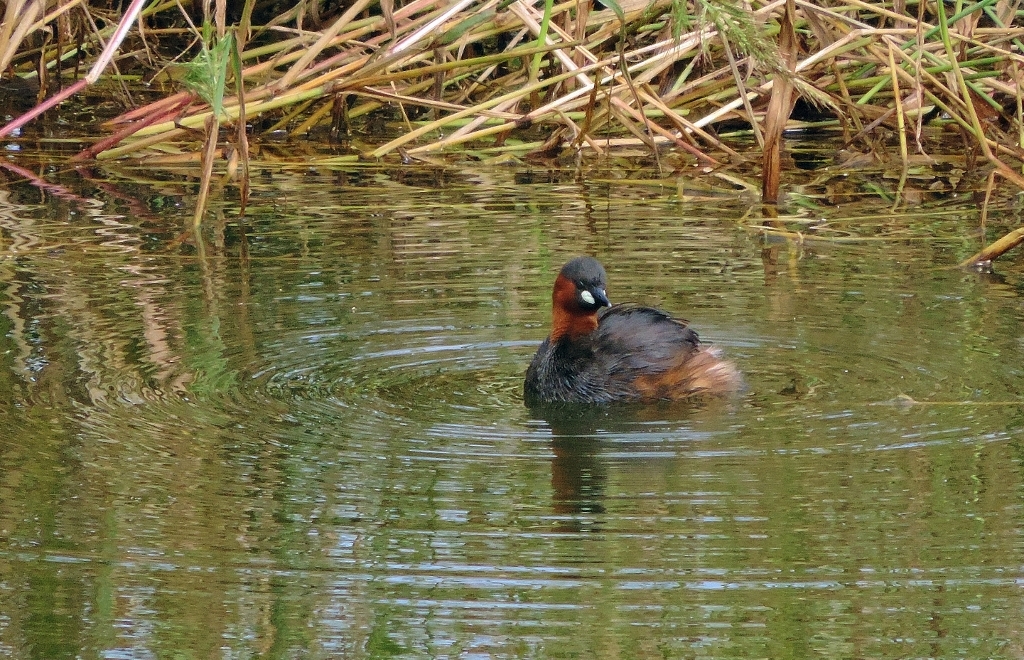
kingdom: Animalia
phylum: Chordata
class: Aves
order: Podicipediformes
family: Podicipedidae
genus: Tachybaptus
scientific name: Tachybaptus ruficollis
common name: Little grebe
